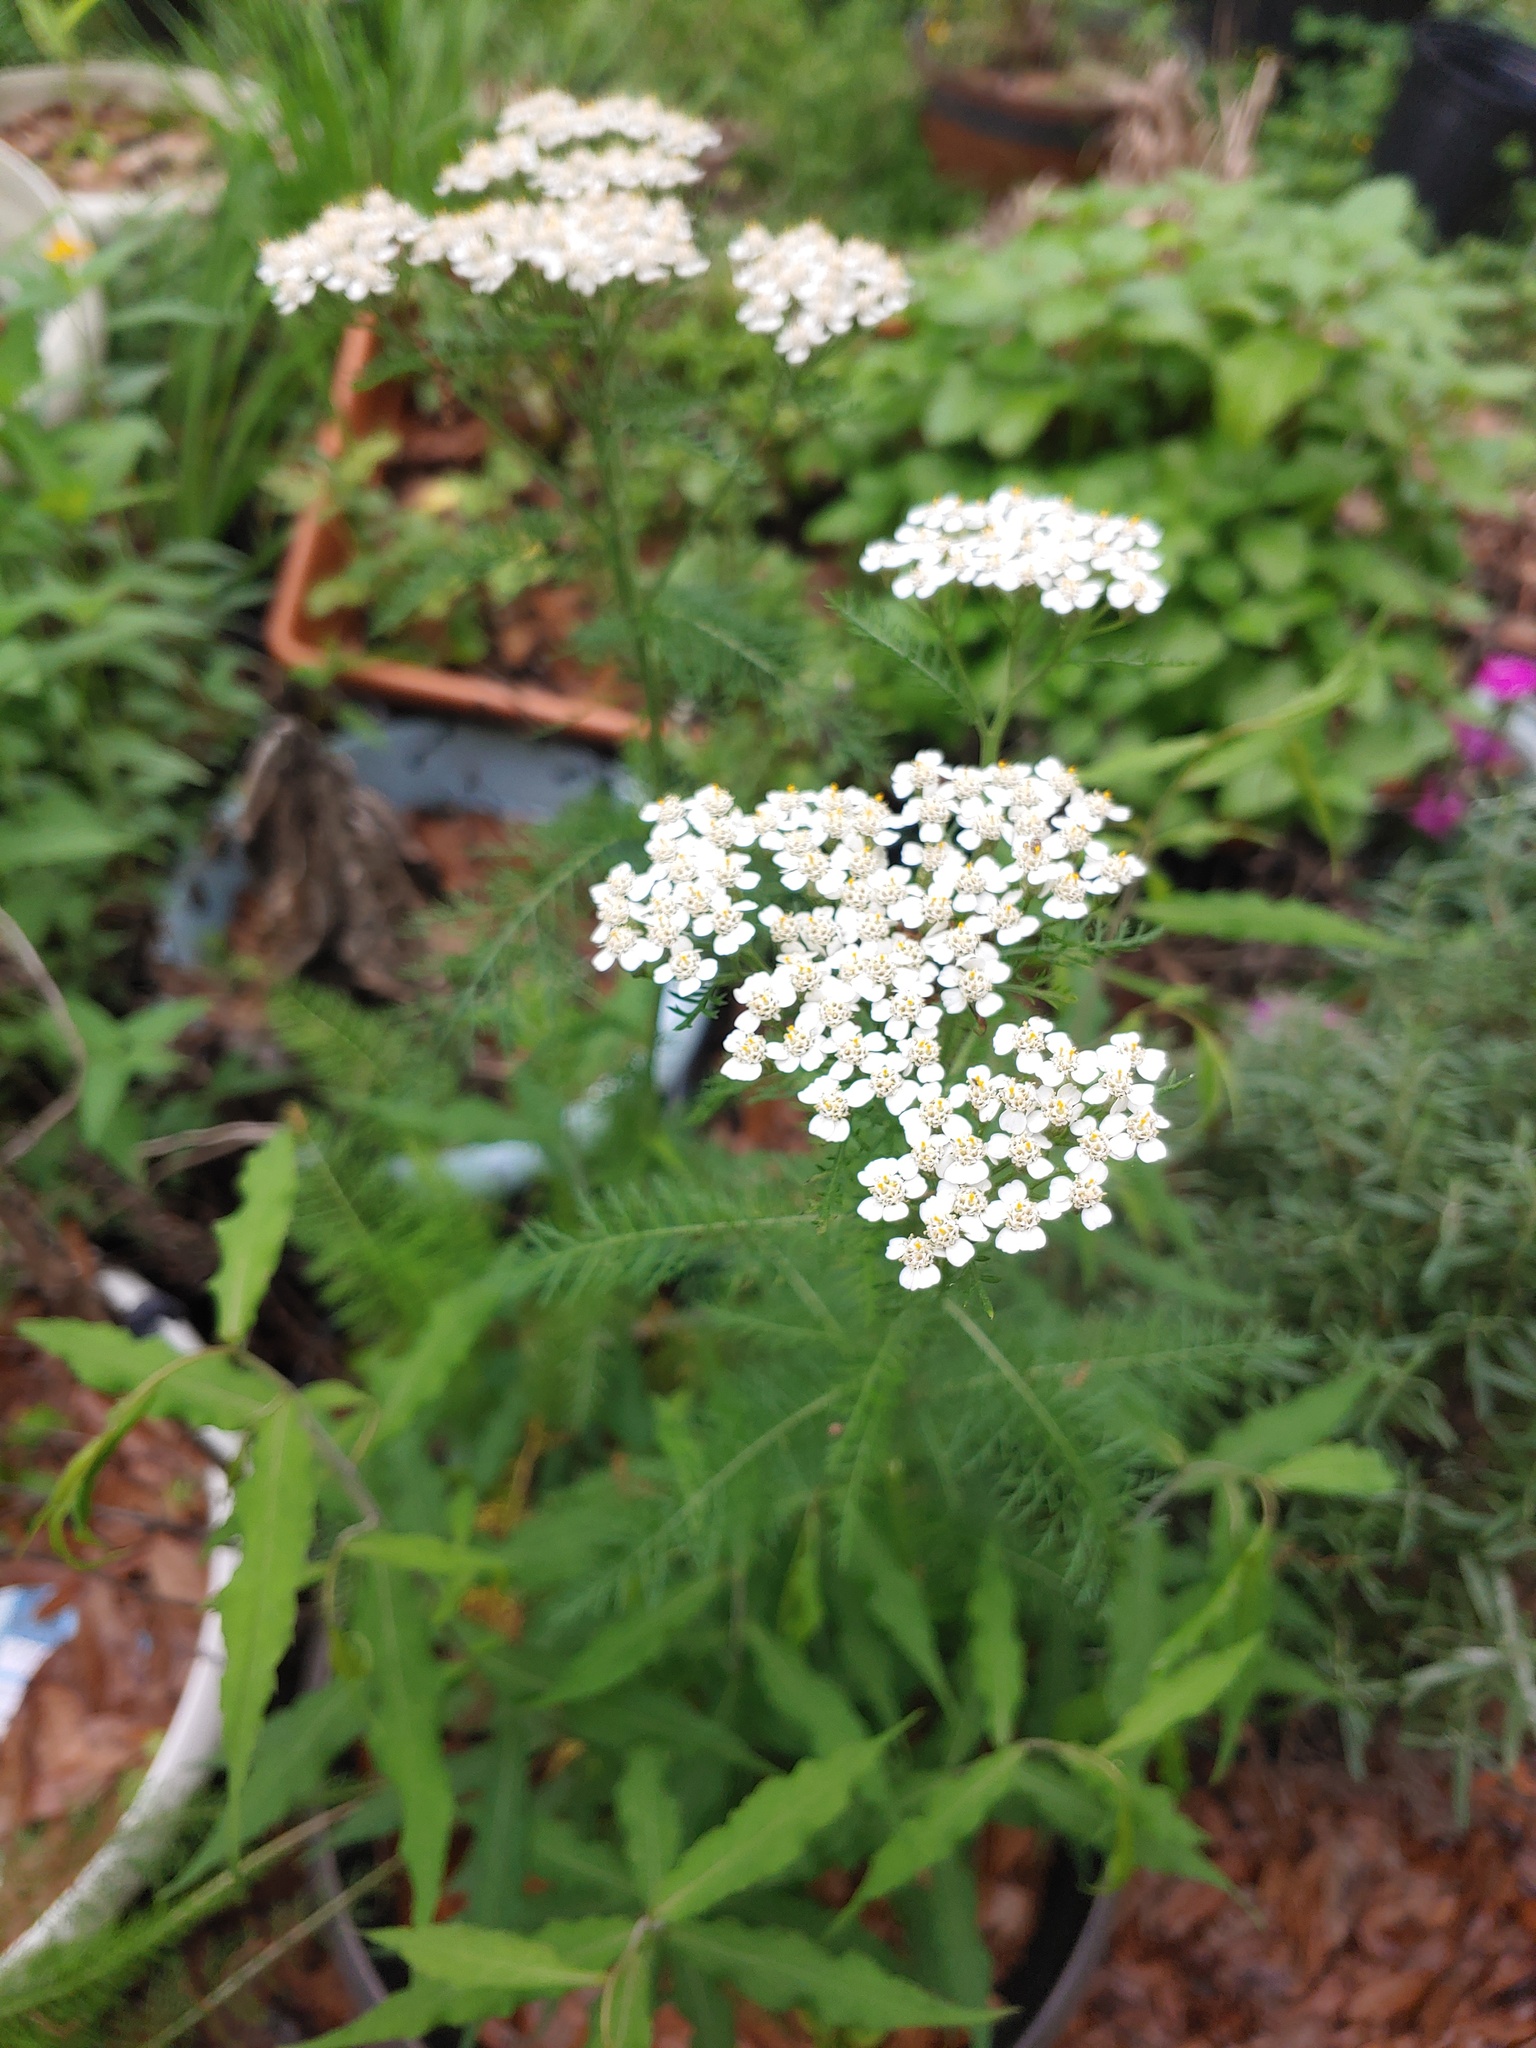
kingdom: Plantae
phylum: Tracheophyta
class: Magnoliopsida
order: Asterales
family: Asteraceae
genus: Achillea
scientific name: Achillea millefolium
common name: Yarrow
